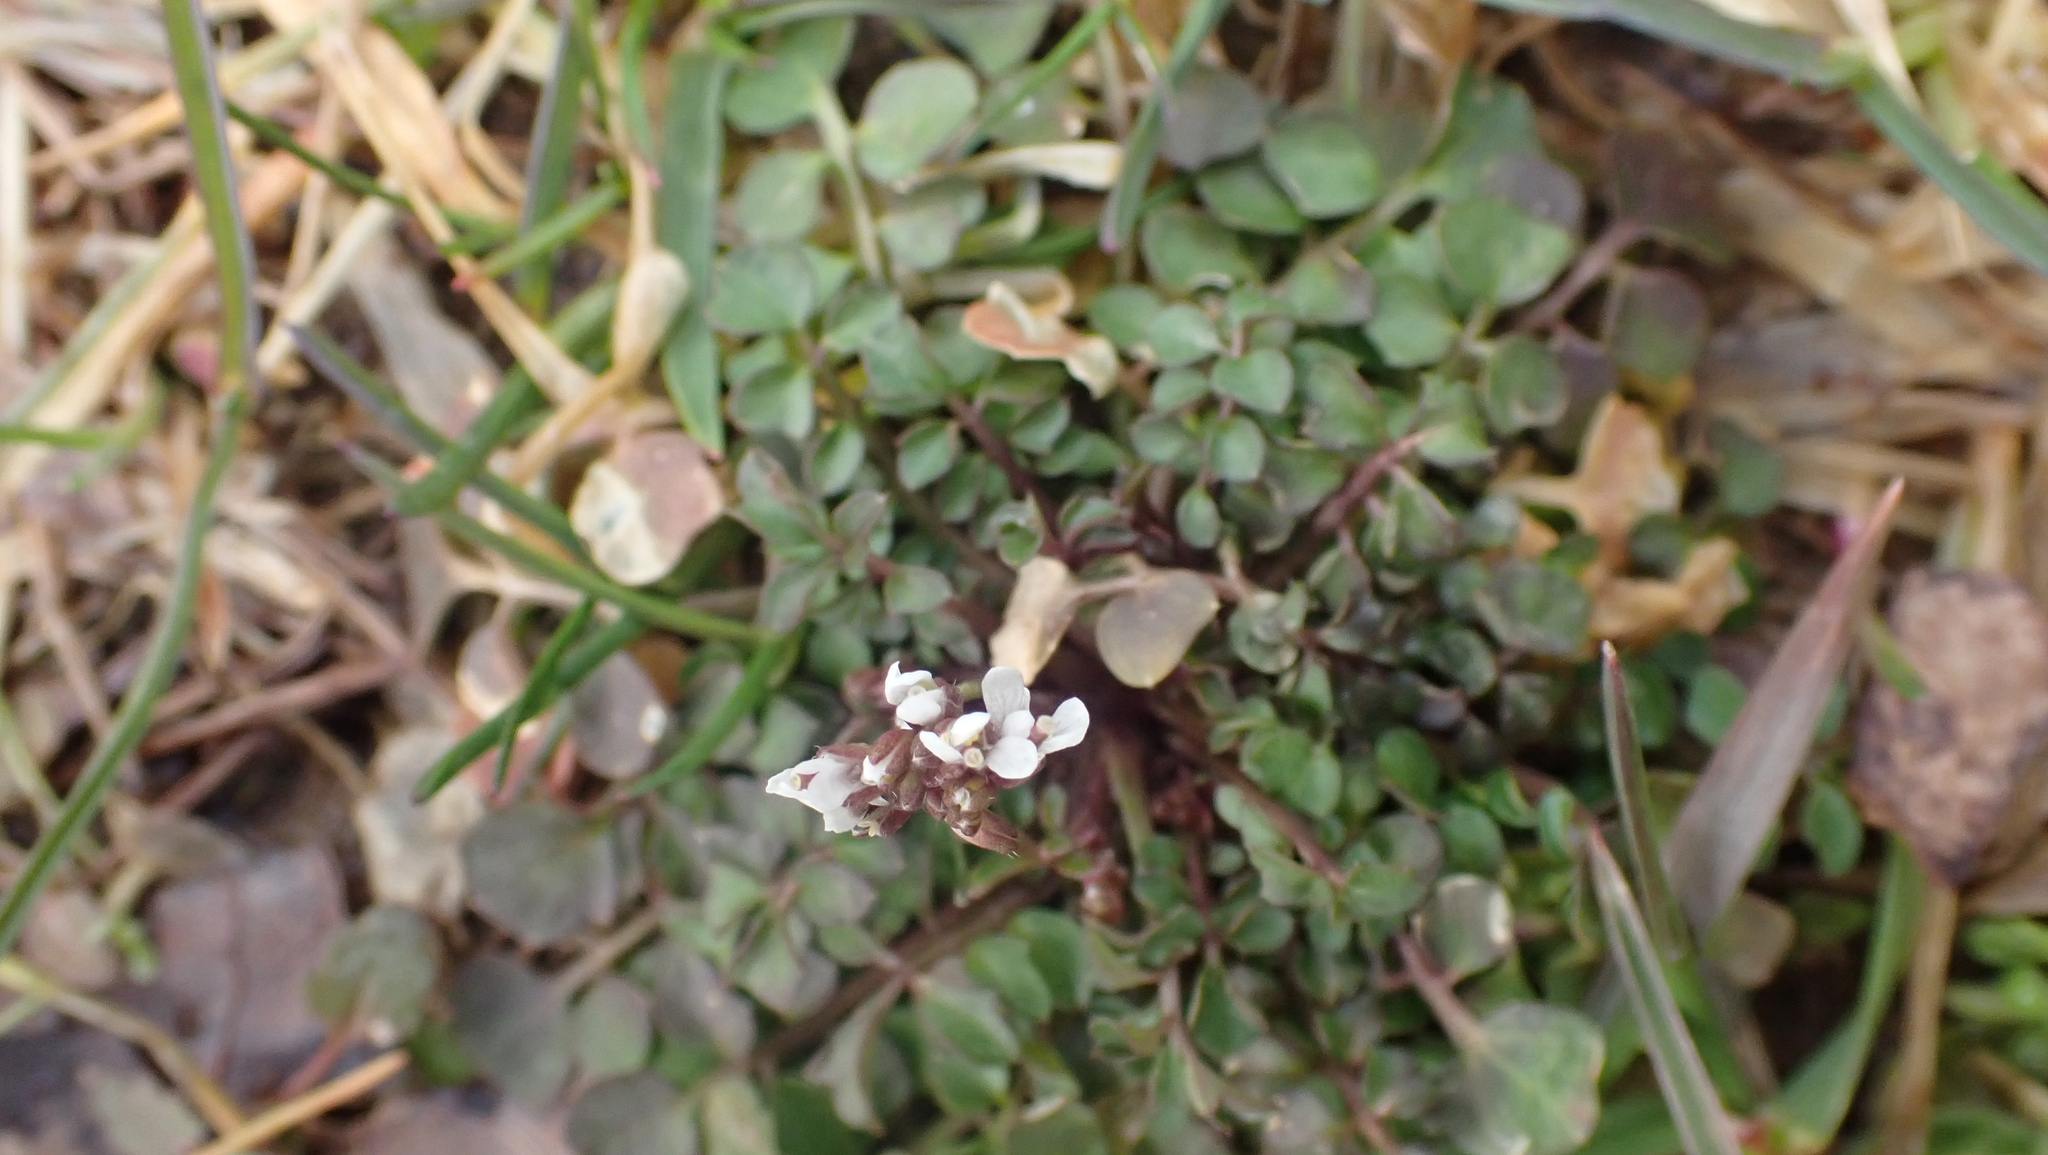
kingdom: Plantae
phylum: Tracheophyta
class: Magnoliopsida
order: Brassicales
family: Brassicaceae
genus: Cardamine
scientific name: Cardamine hirsuta
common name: Hairy bittercress
